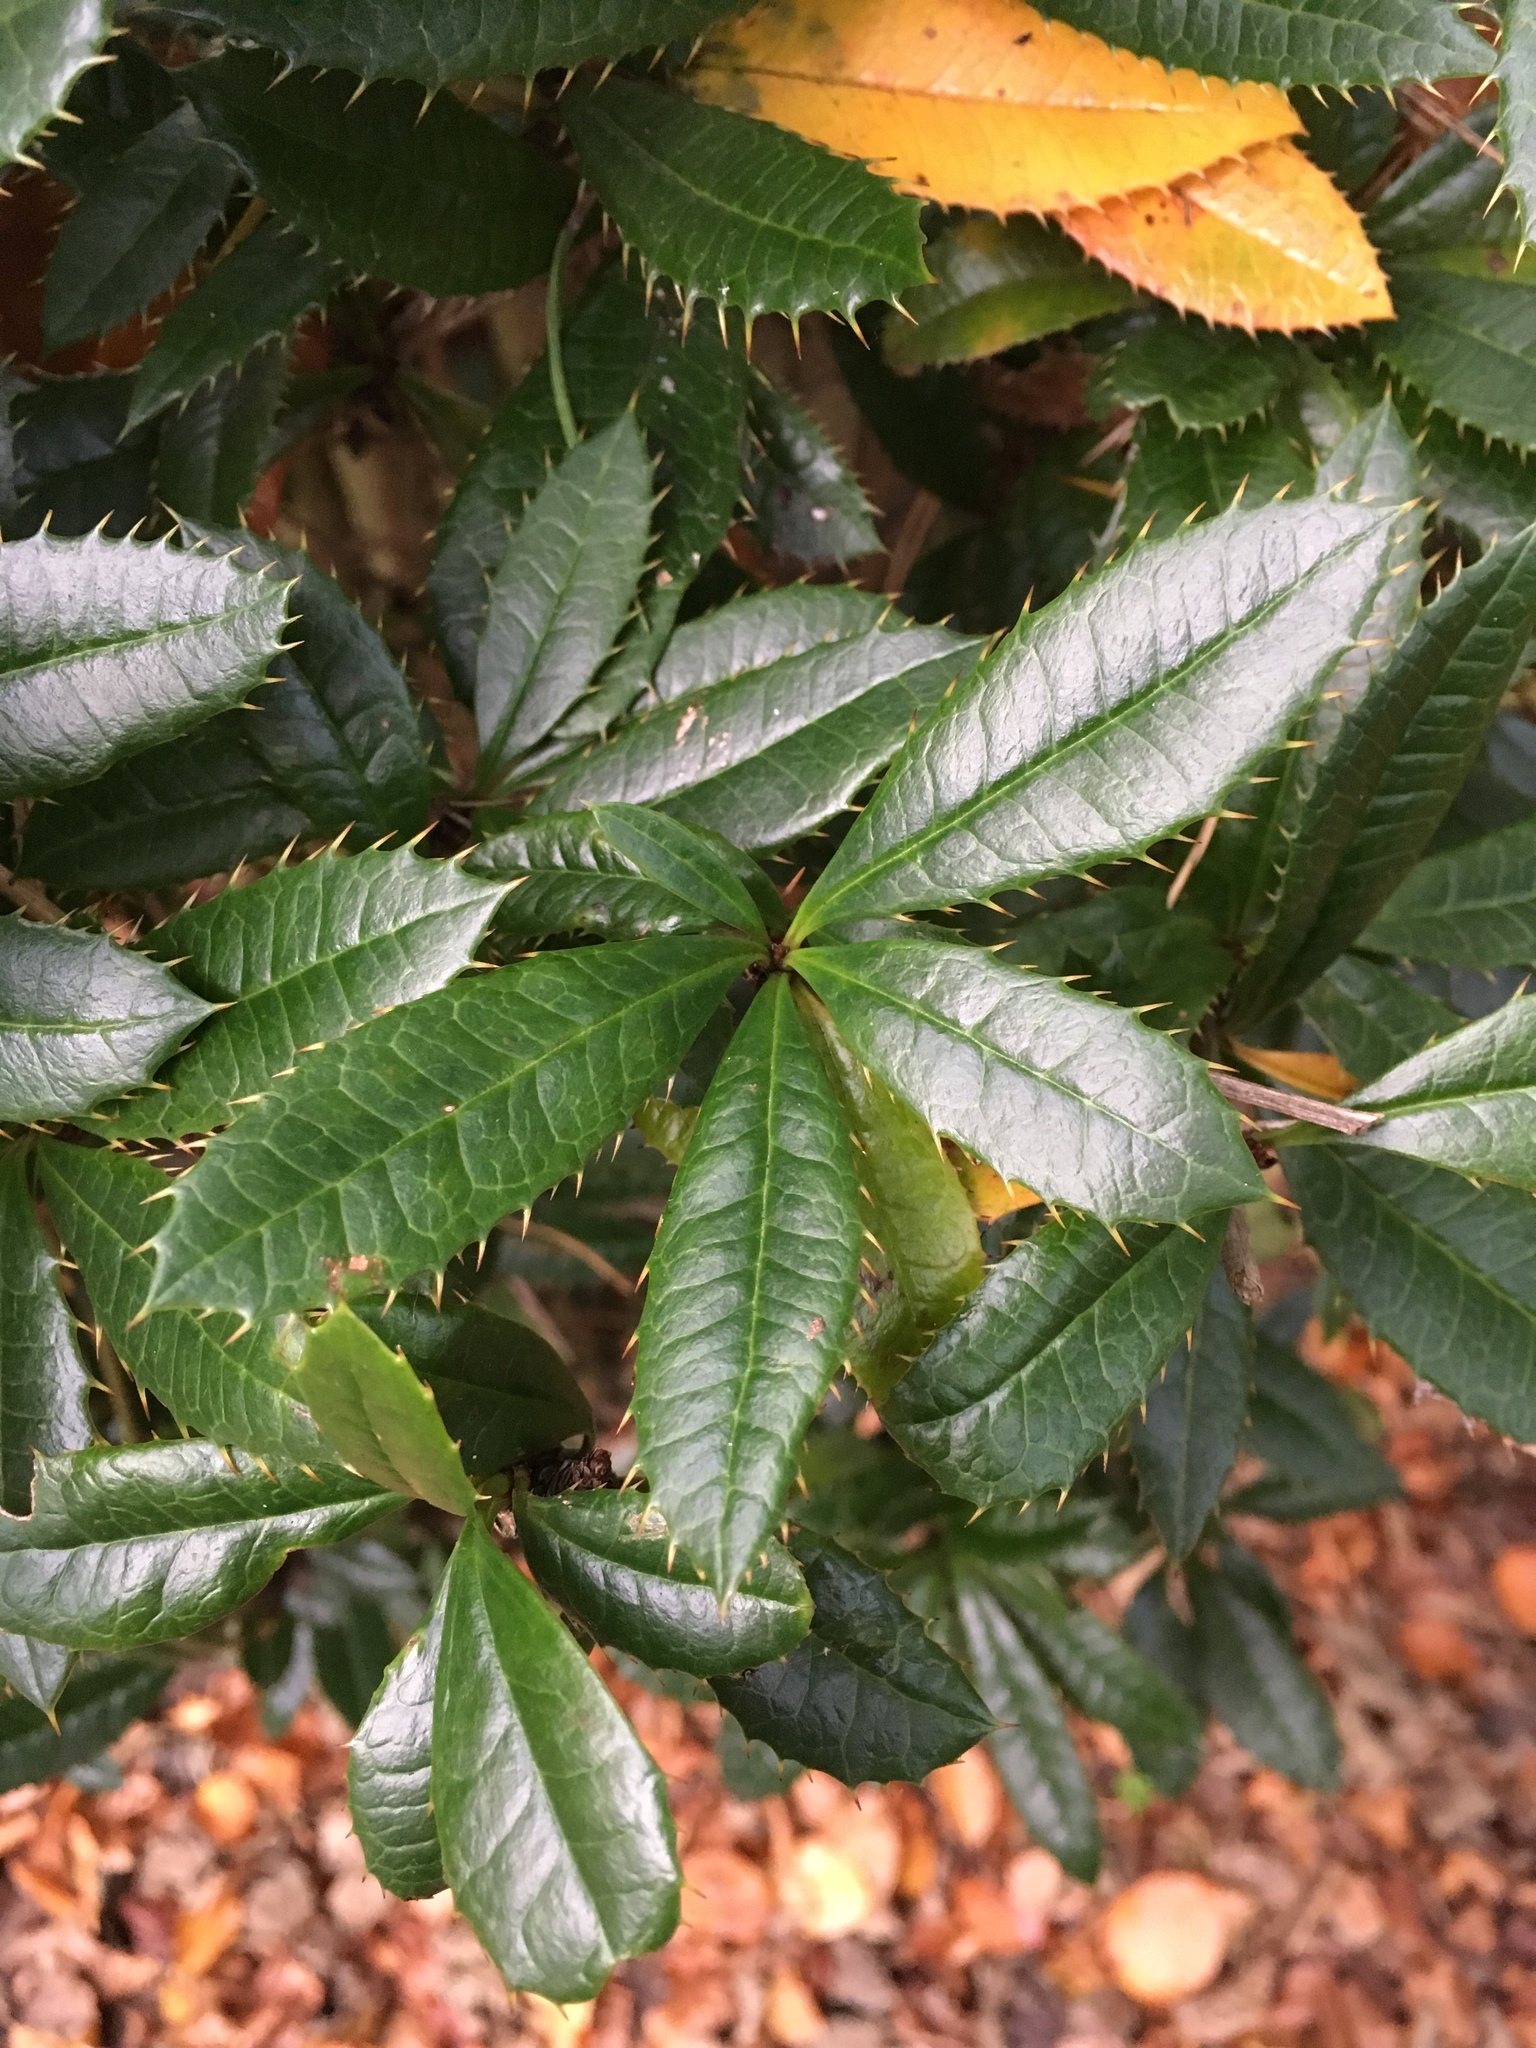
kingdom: Plantae
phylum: Tracheophyta
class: Magnoliopsida
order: Ranunculales
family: Berberidaceae
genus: Berberis
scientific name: Berberis julianae
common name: Wintergreen barberry
